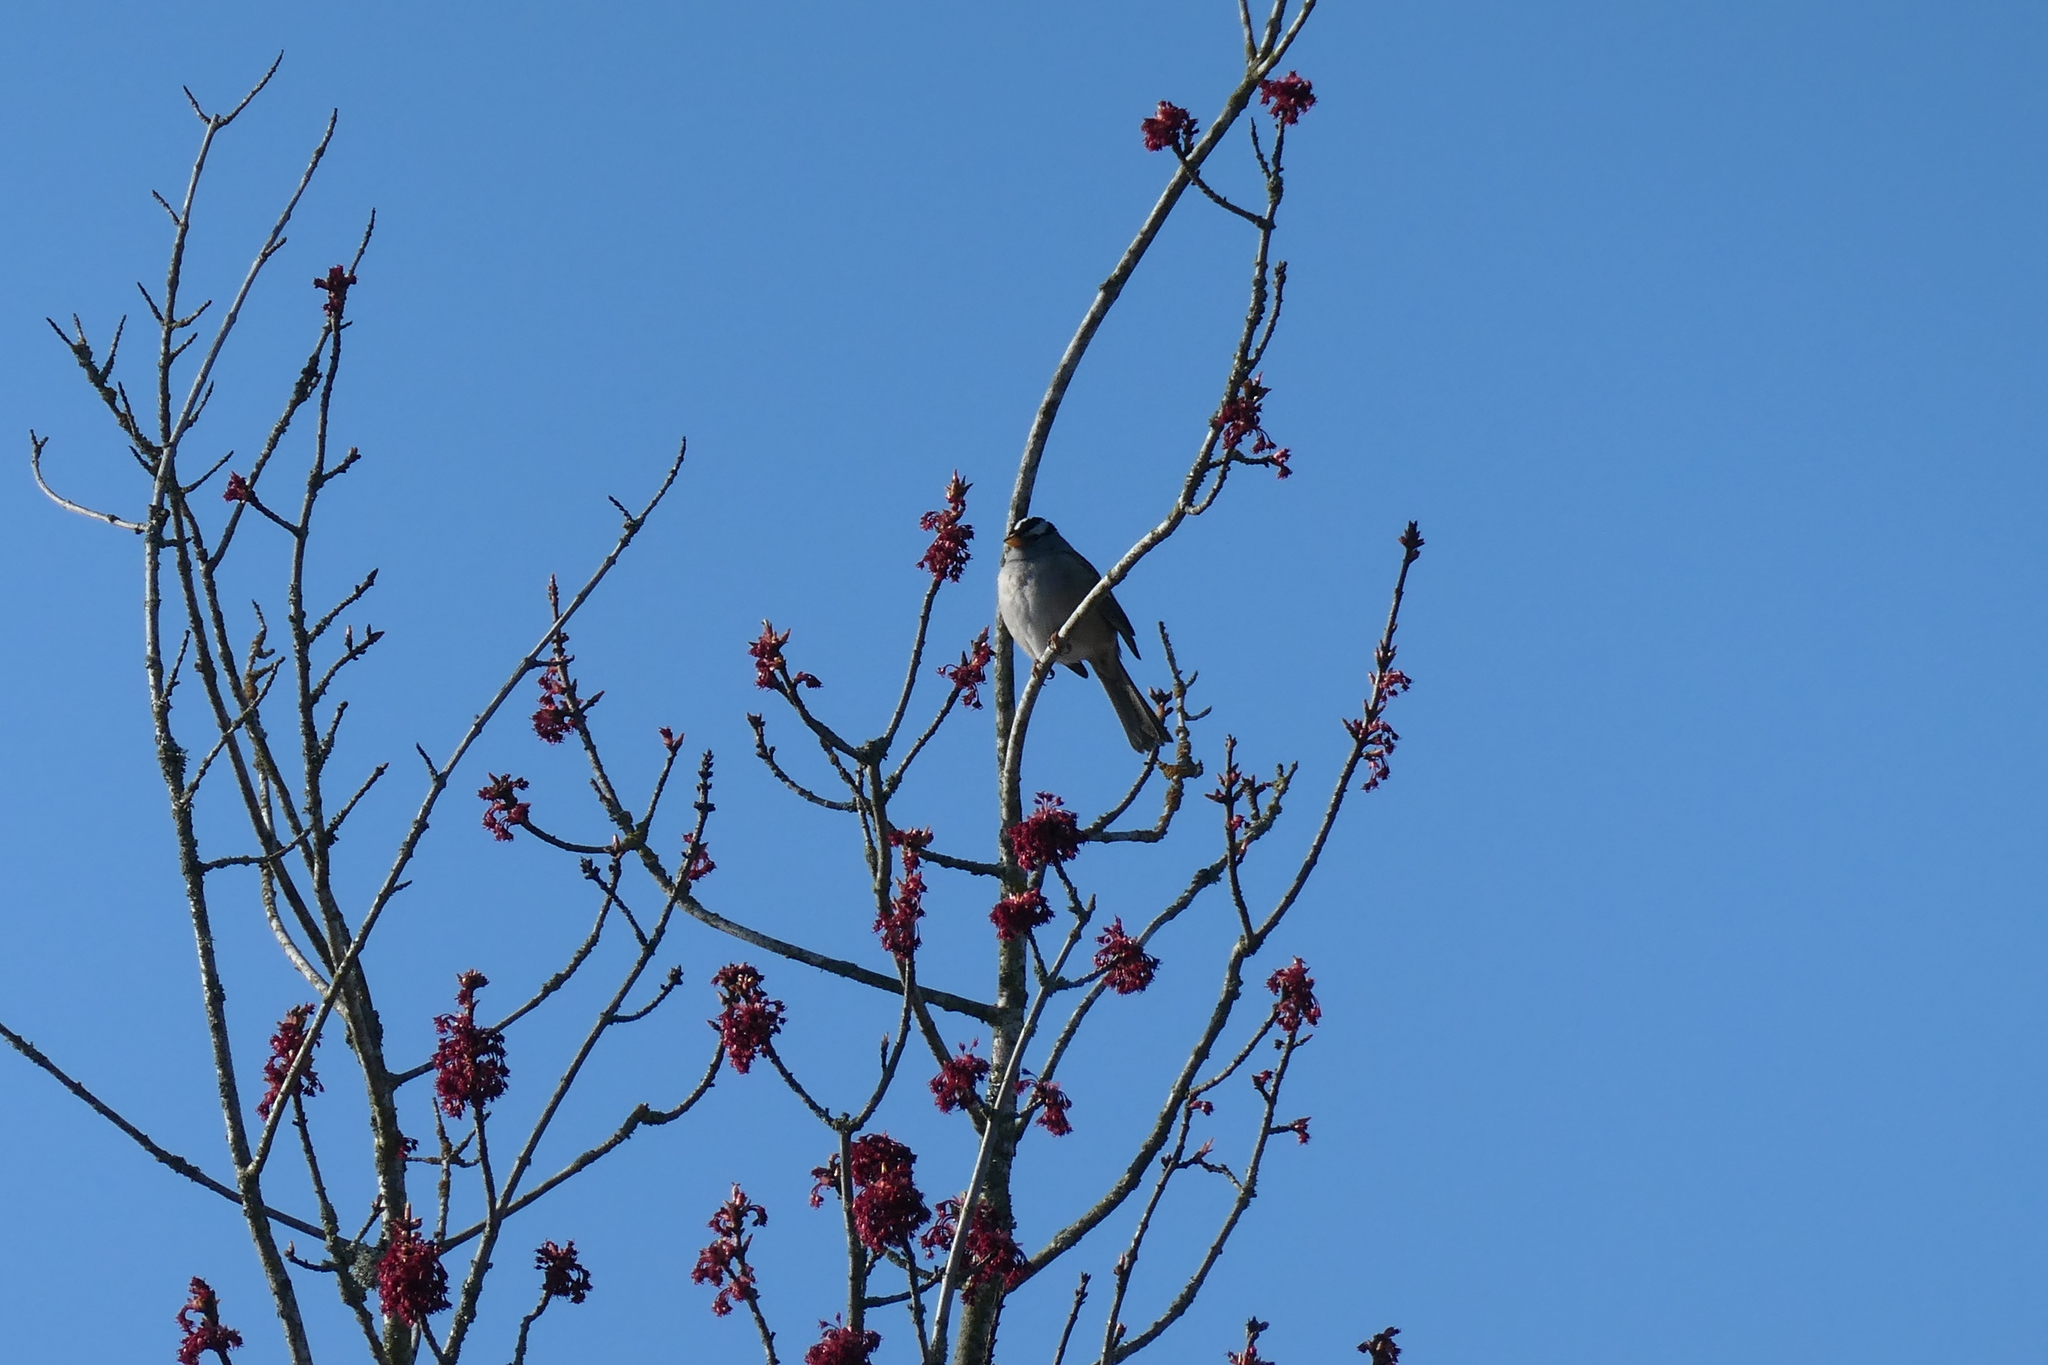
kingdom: Animalia
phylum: Chordata
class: Aves
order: Passeriformes
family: Passerellidae
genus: Zonotrichia
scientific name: Zonotrichia leucophrys
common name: White-crowned sparrow
